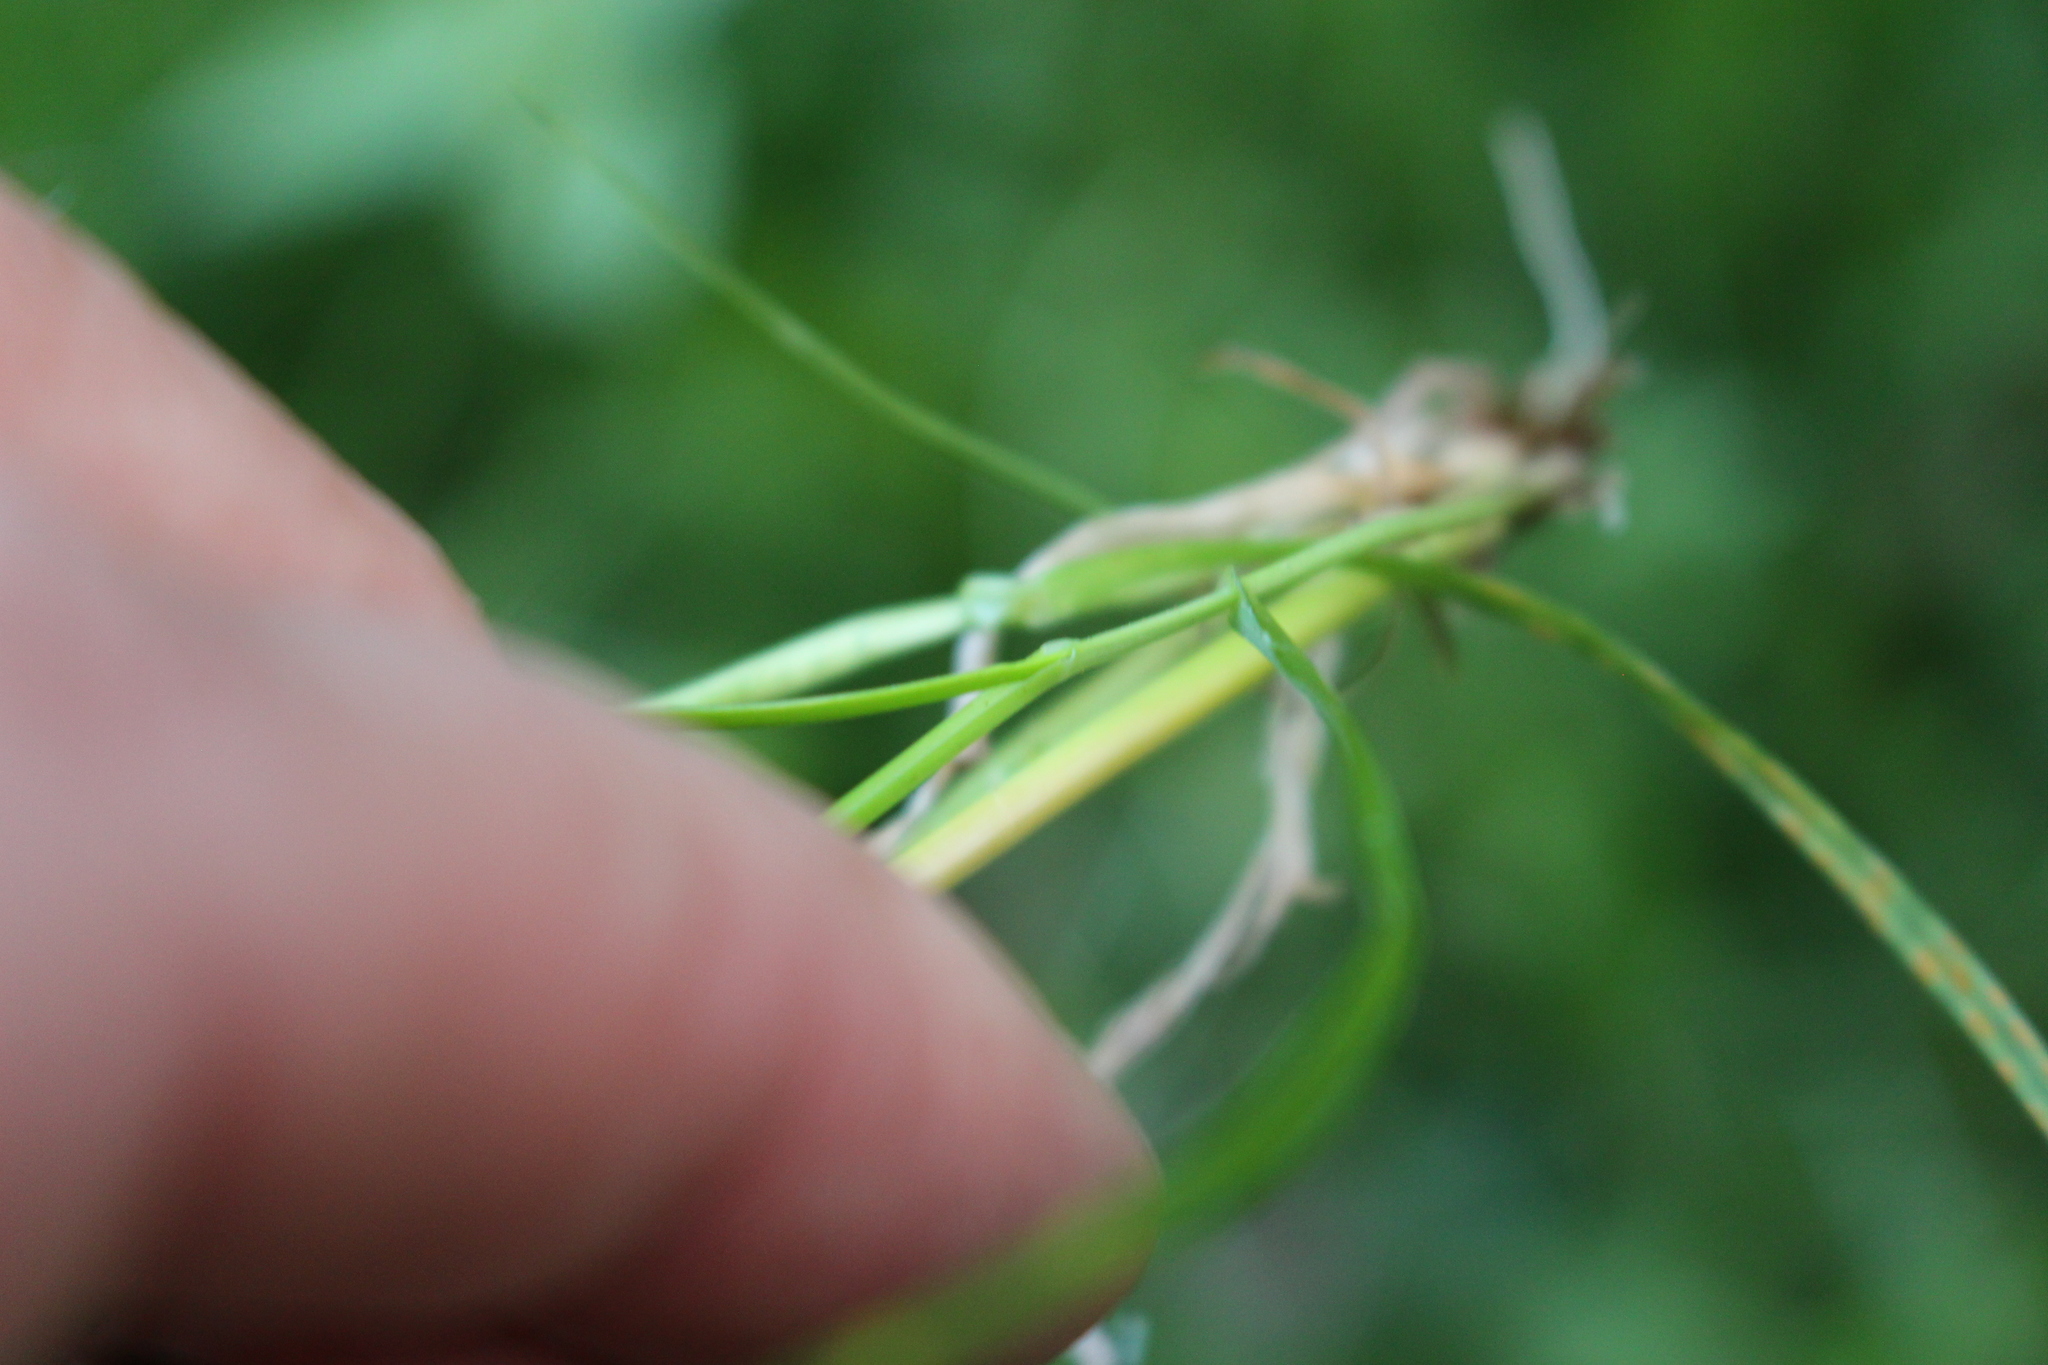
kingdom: Plantae
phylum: Tracheophyta
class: Liliopsida
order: Poales
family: Poaceae
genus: Lolium
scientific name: Lolium perenne
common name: Perennial ryegrass
